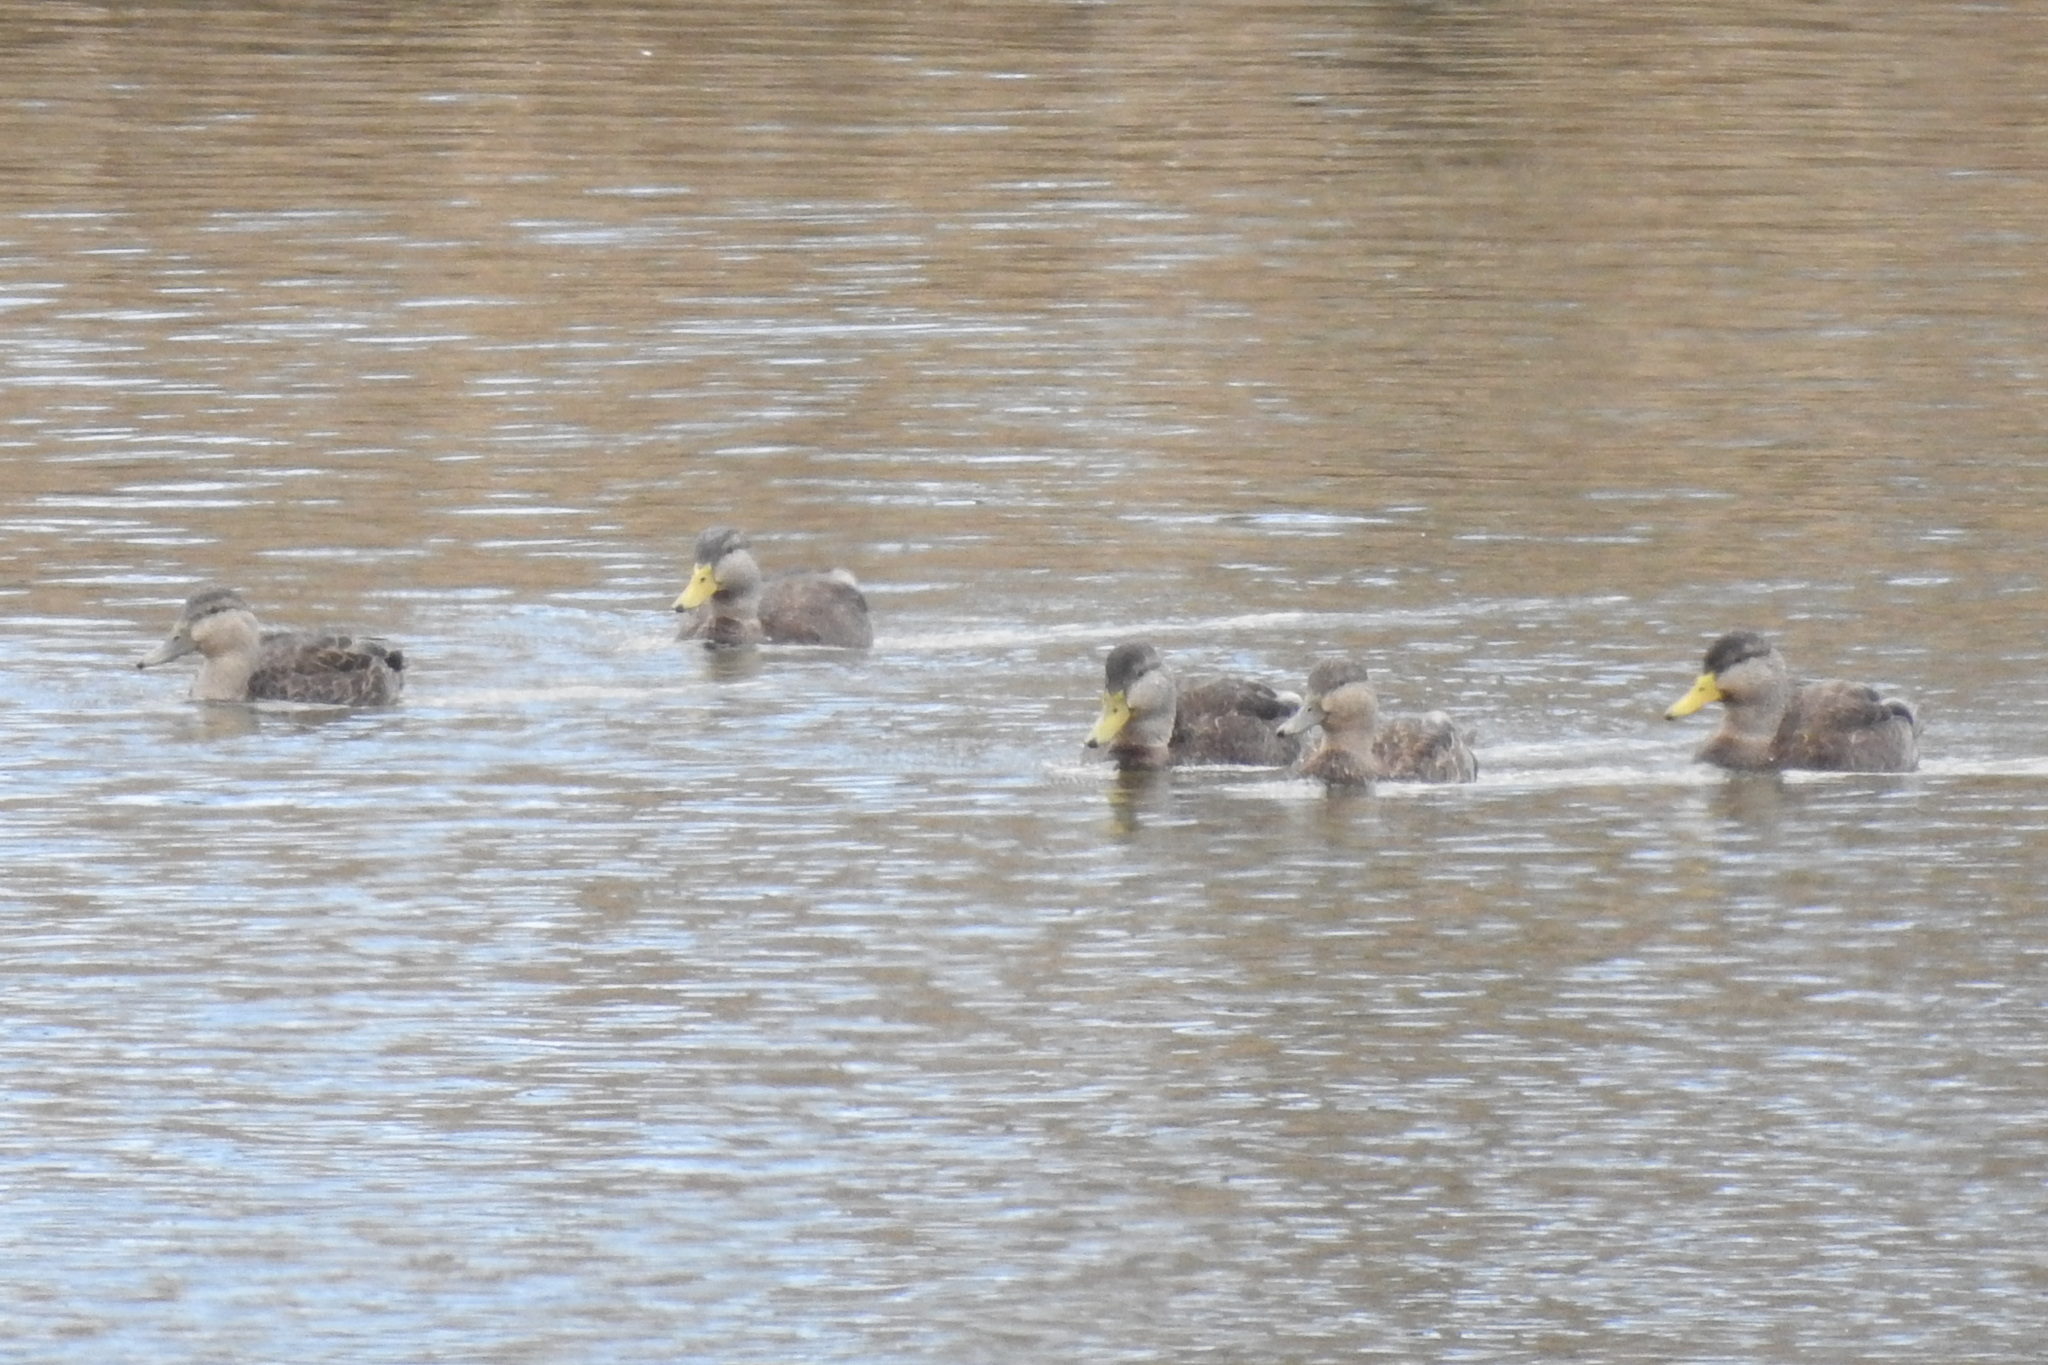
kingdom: Animalia
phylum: Chordata
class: Aves
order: Anseriformes
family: Anatidae
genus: Anas
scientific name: Anas rubripes
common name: American black duck
